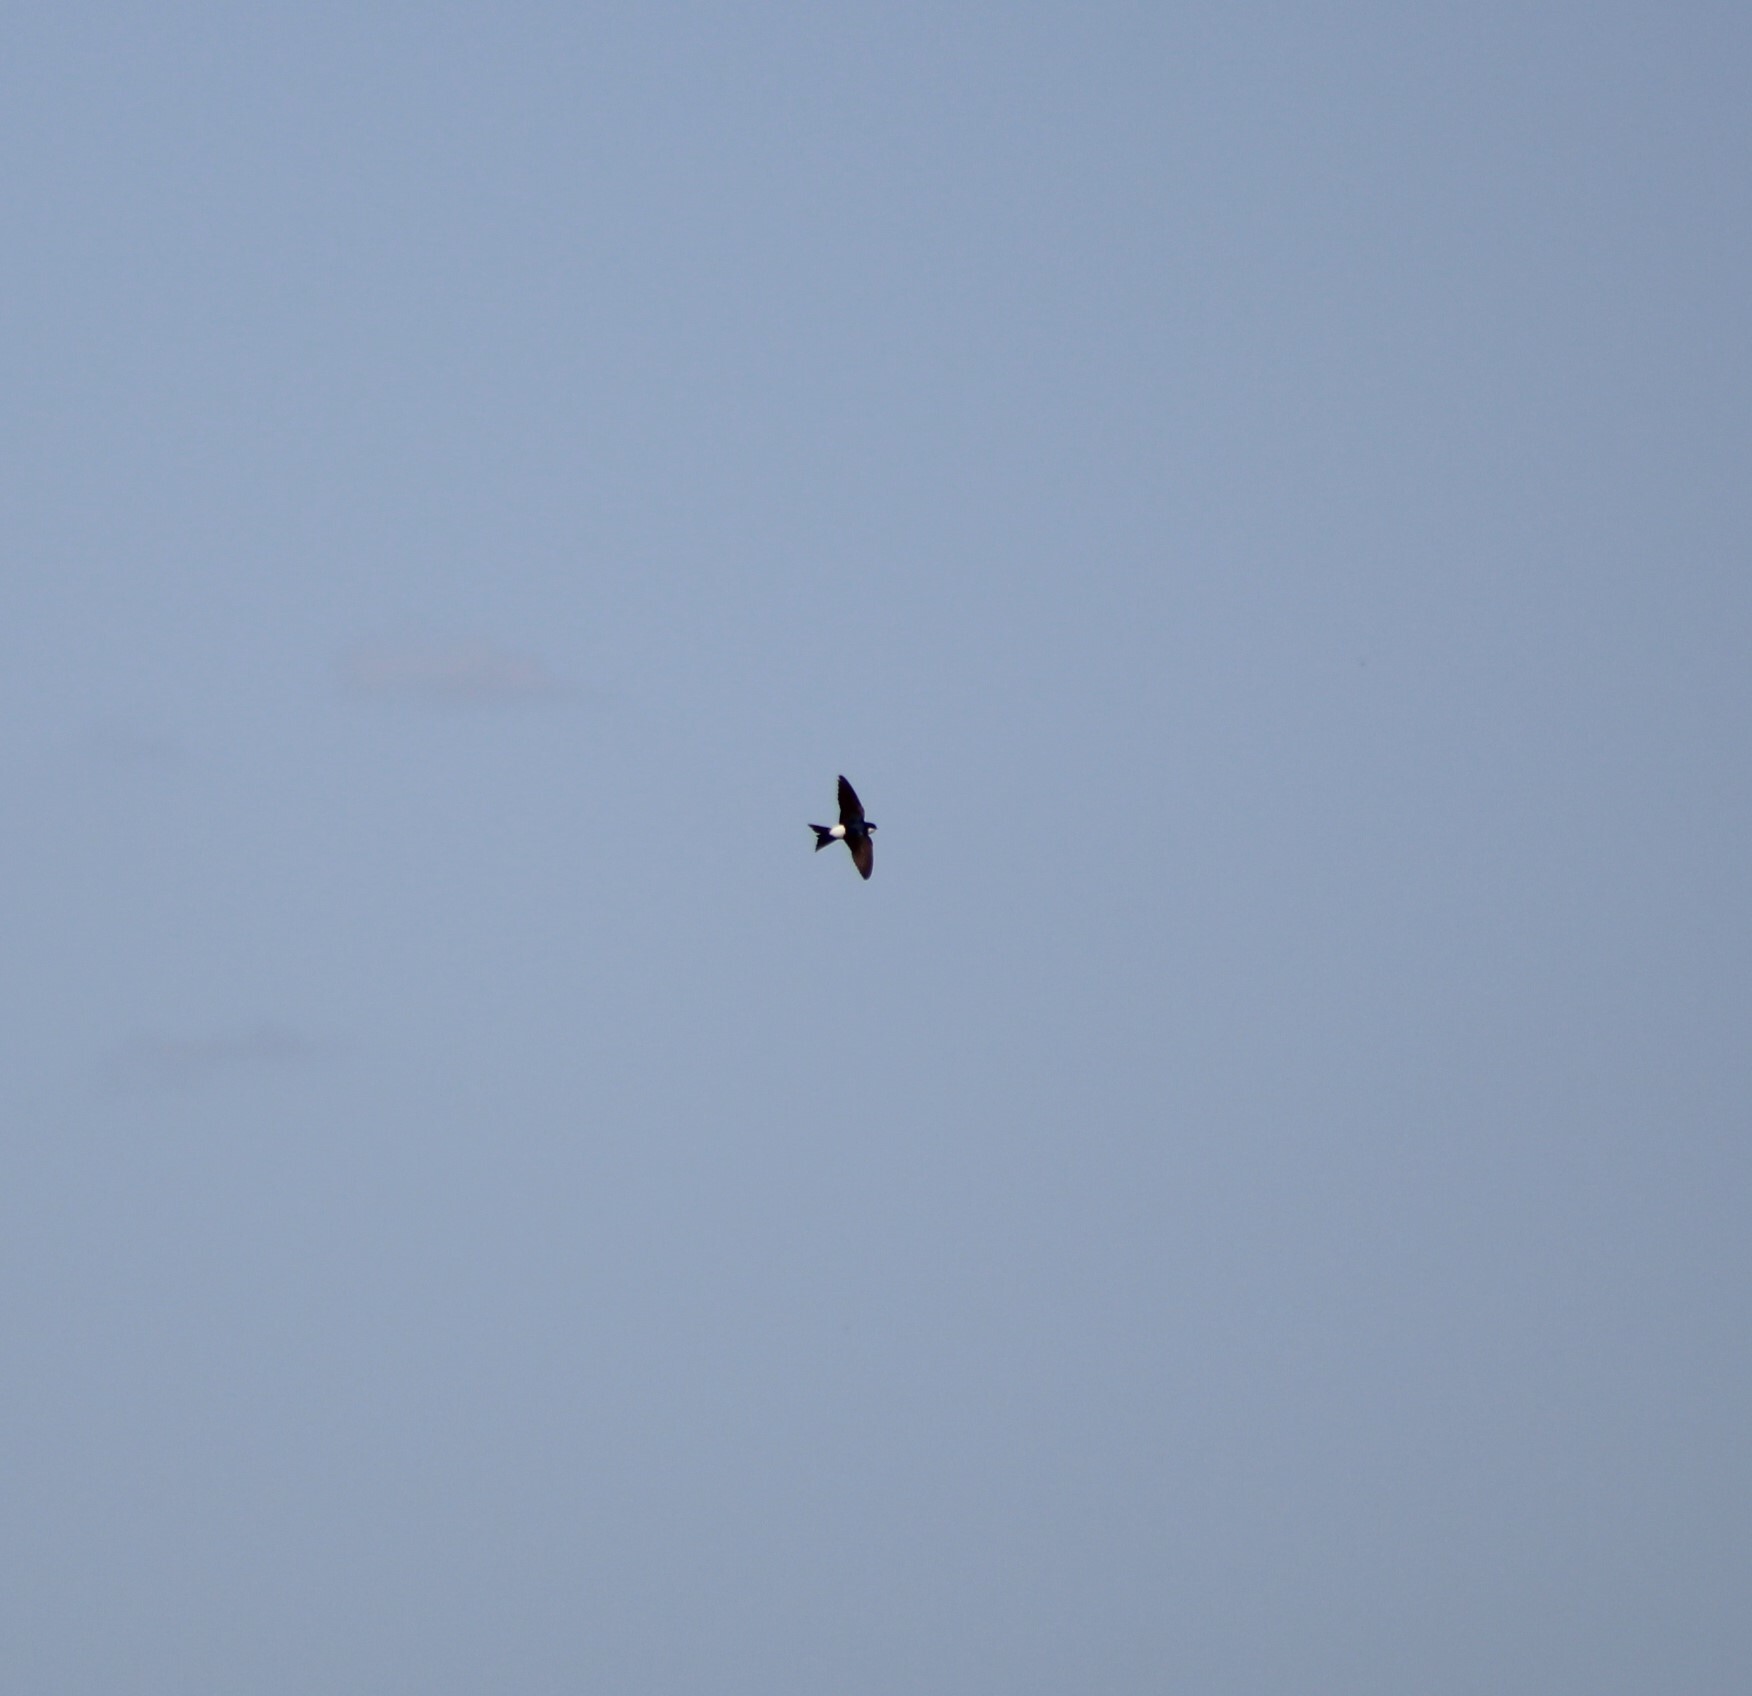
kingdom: Animalia
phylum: Chordata
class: Aves
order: Passeriformes
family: Hirundinidae
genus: Delichon
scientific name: Delichon urbicum
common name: Common house martin
